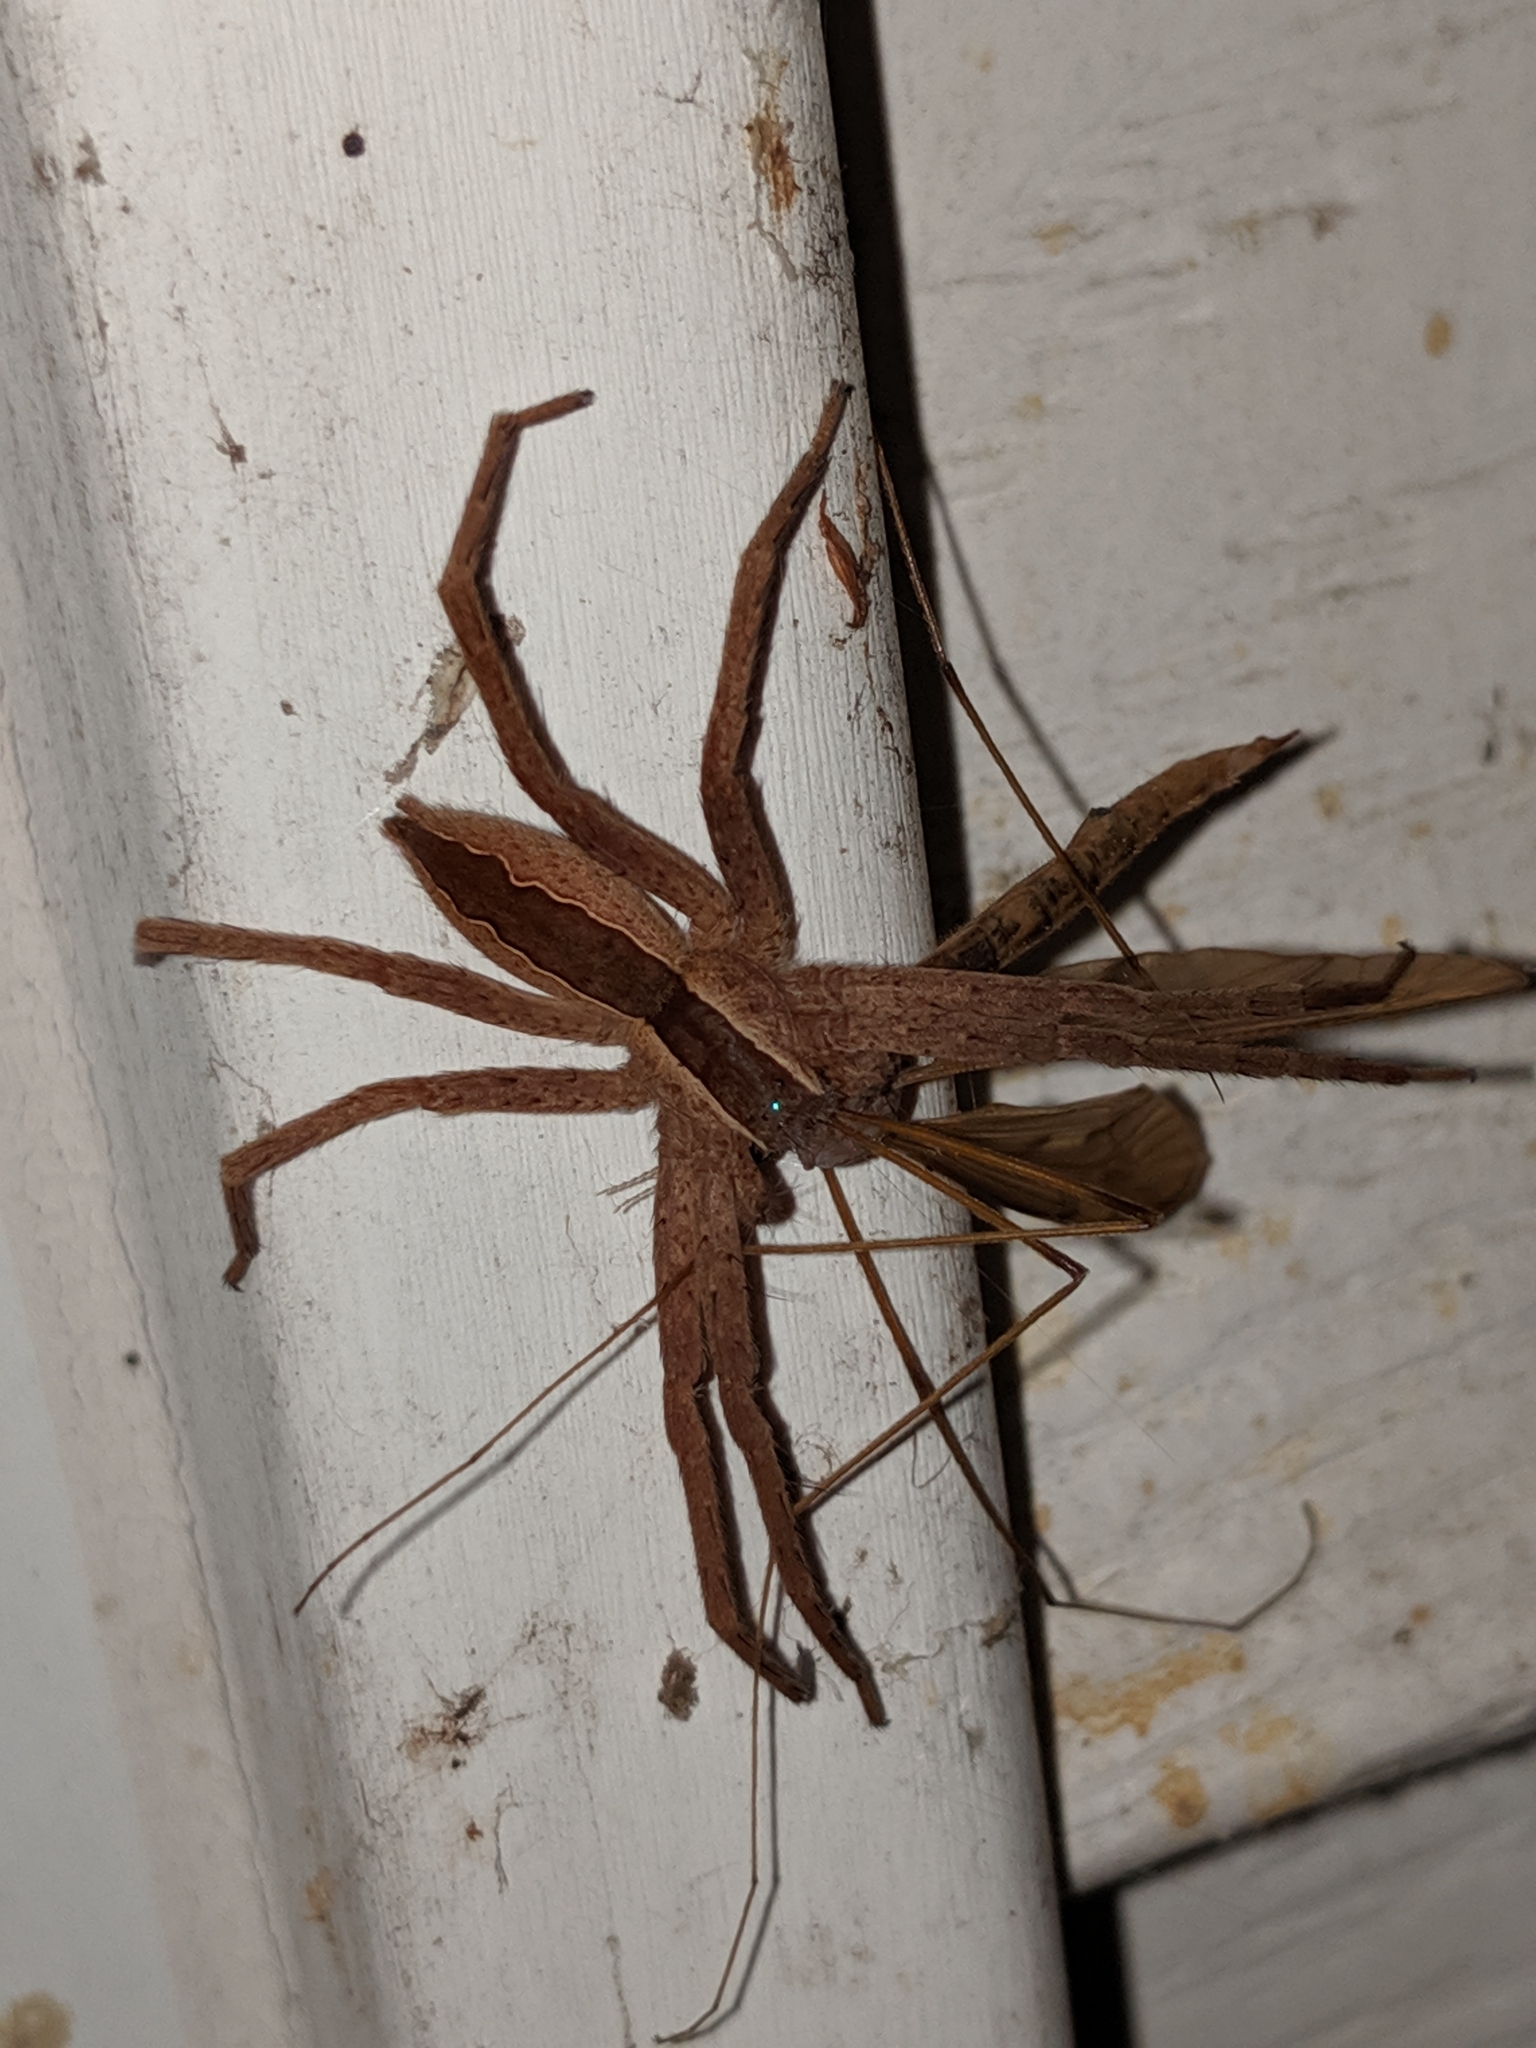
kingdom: Animalia
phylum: Arthropoda
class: Arachnida
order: Araneae
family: Pisauridae
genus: Pisaurina
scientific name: Pisaurina mira
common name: American nursery web spider
